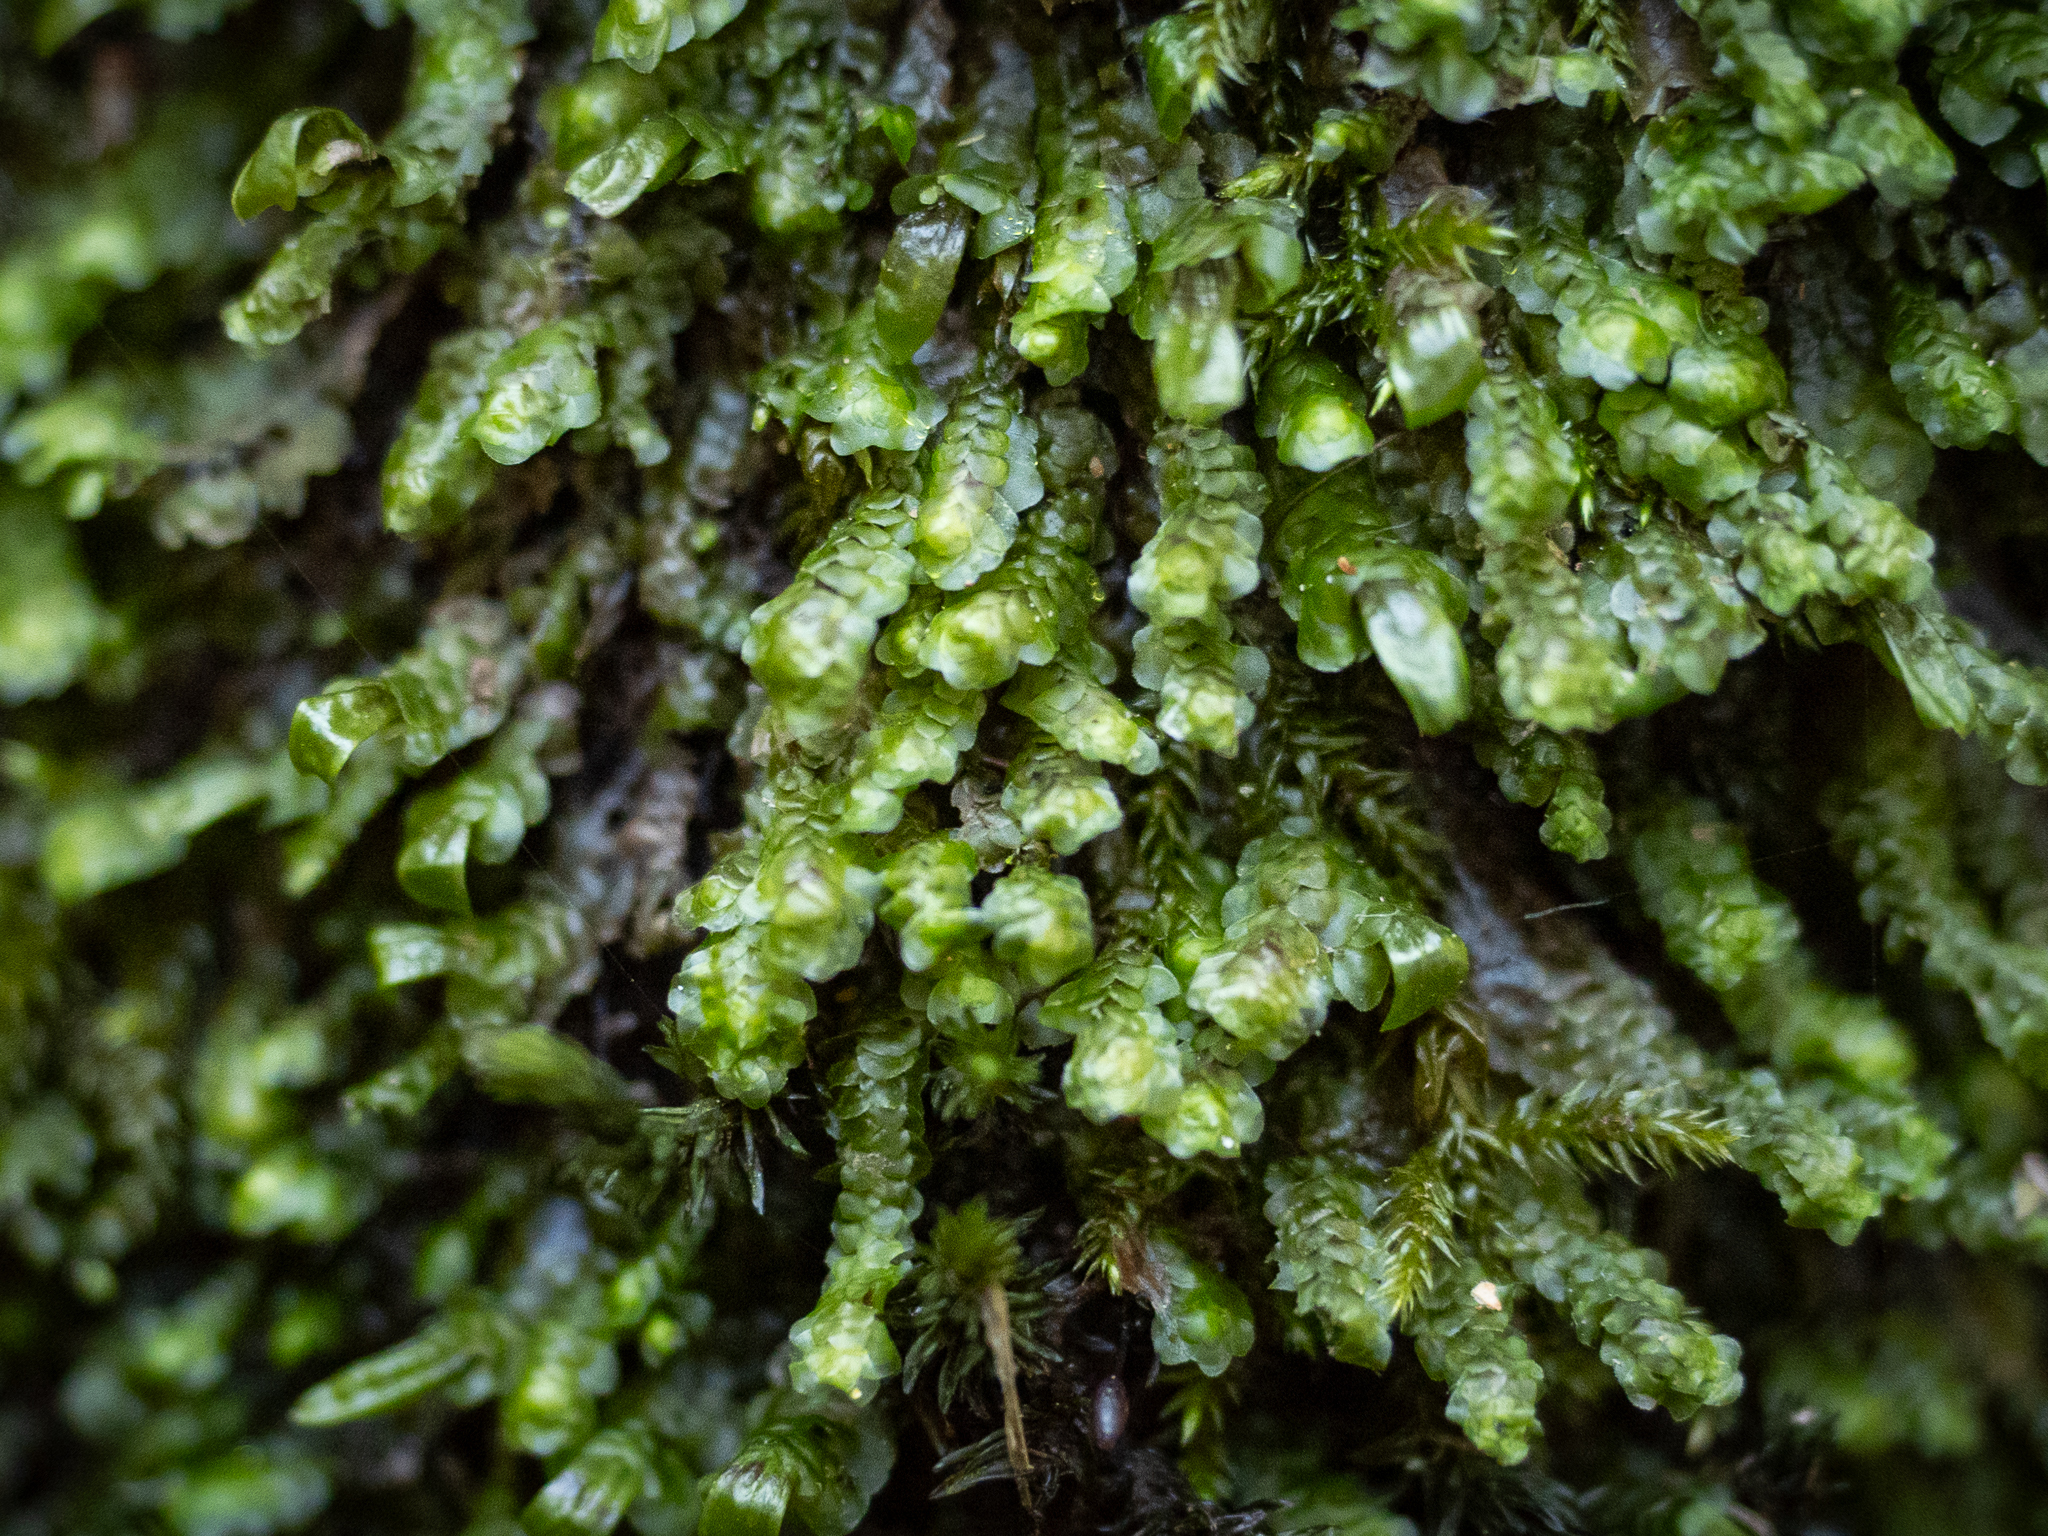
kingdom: Plantae
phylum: Marchantiophyta
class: Jungermanniopsida
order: Jungermanniales
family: Scapaniaceae
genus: Scapania
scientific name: Scapania undulata
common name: Water earwort
